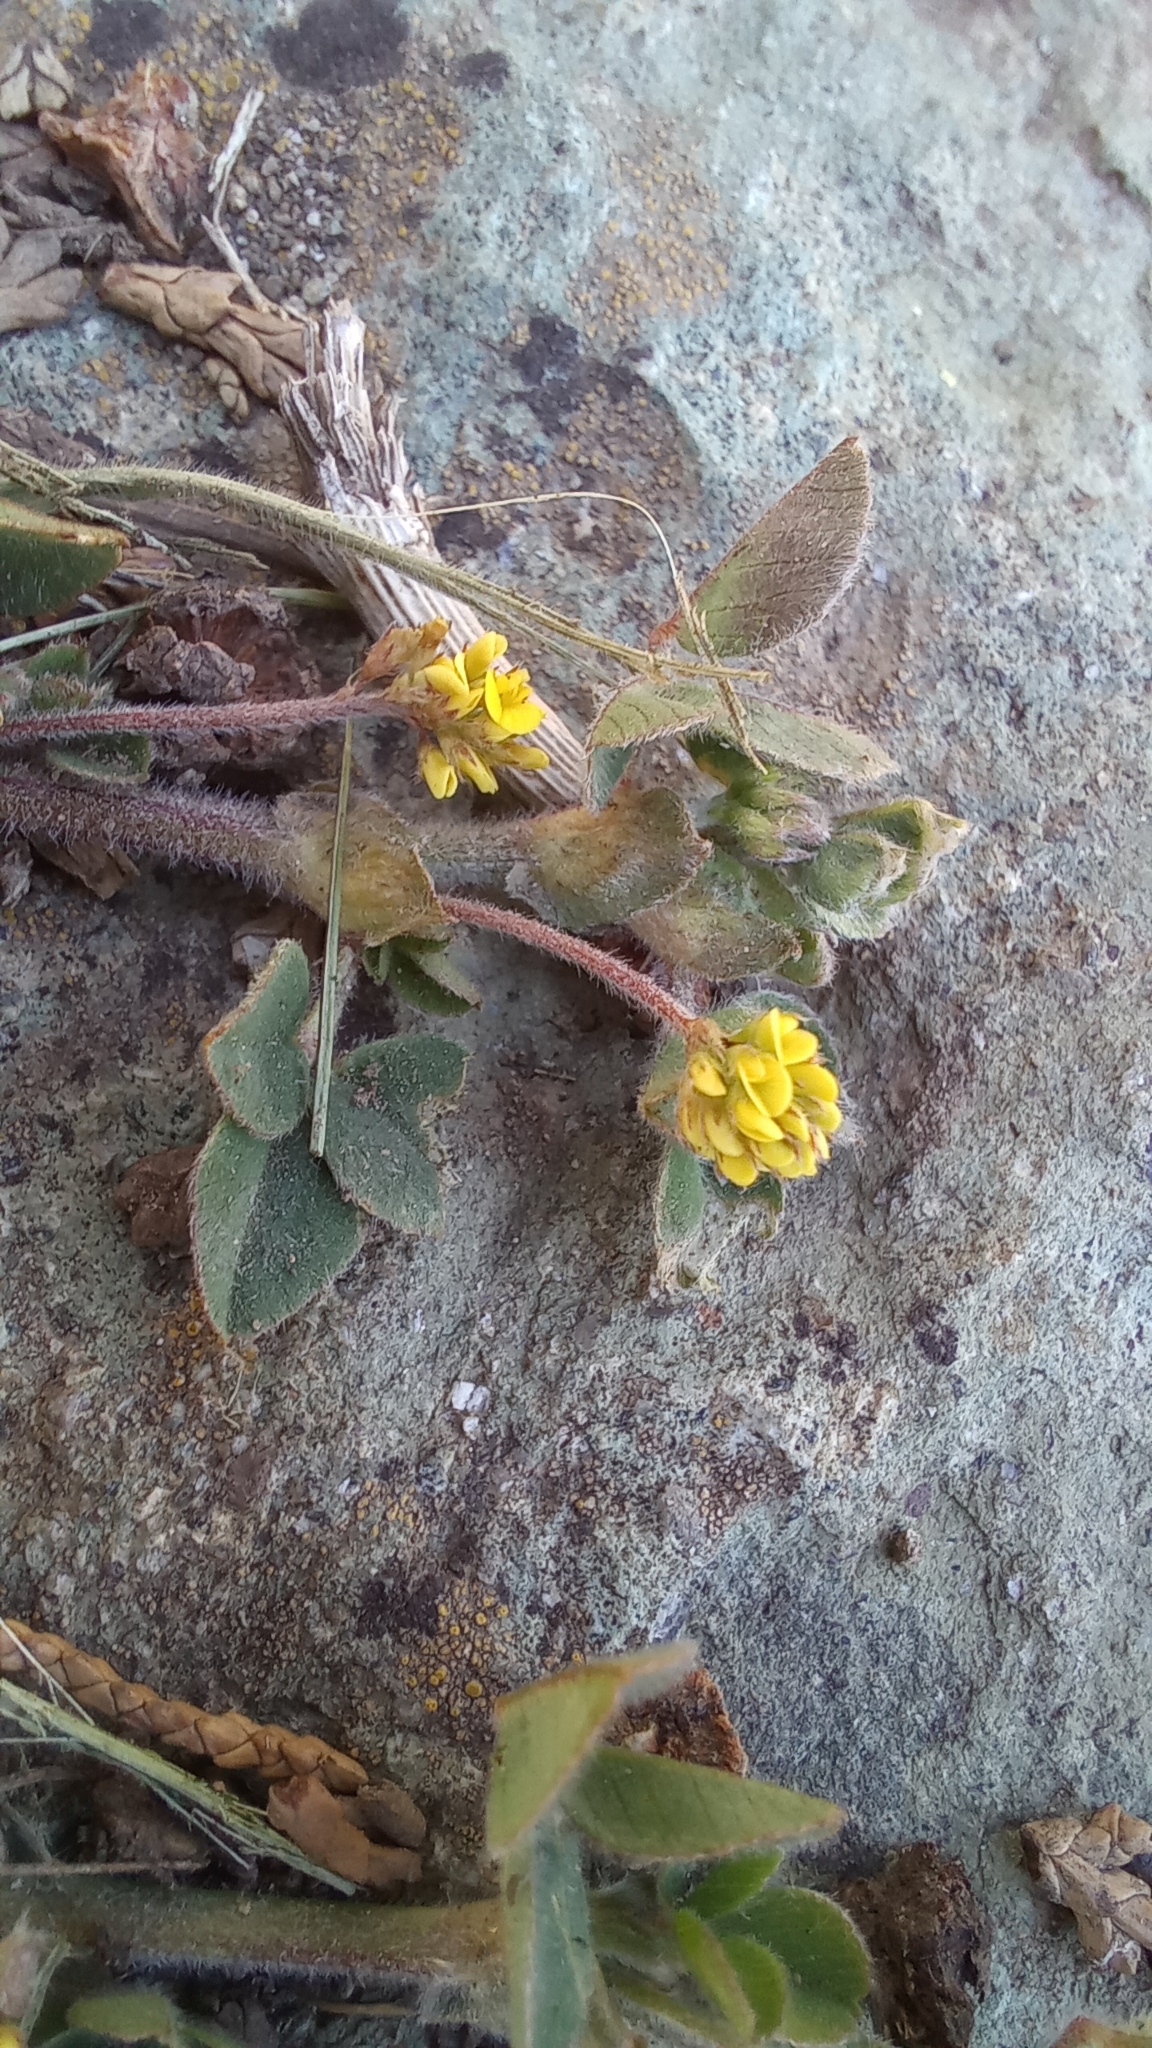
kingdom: Plantae
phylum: Tracheophyta
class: Magnoliopsida
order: Fabales
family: Fabaceae
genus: Medicago
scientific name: Medicago lupulina
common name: Black medick
